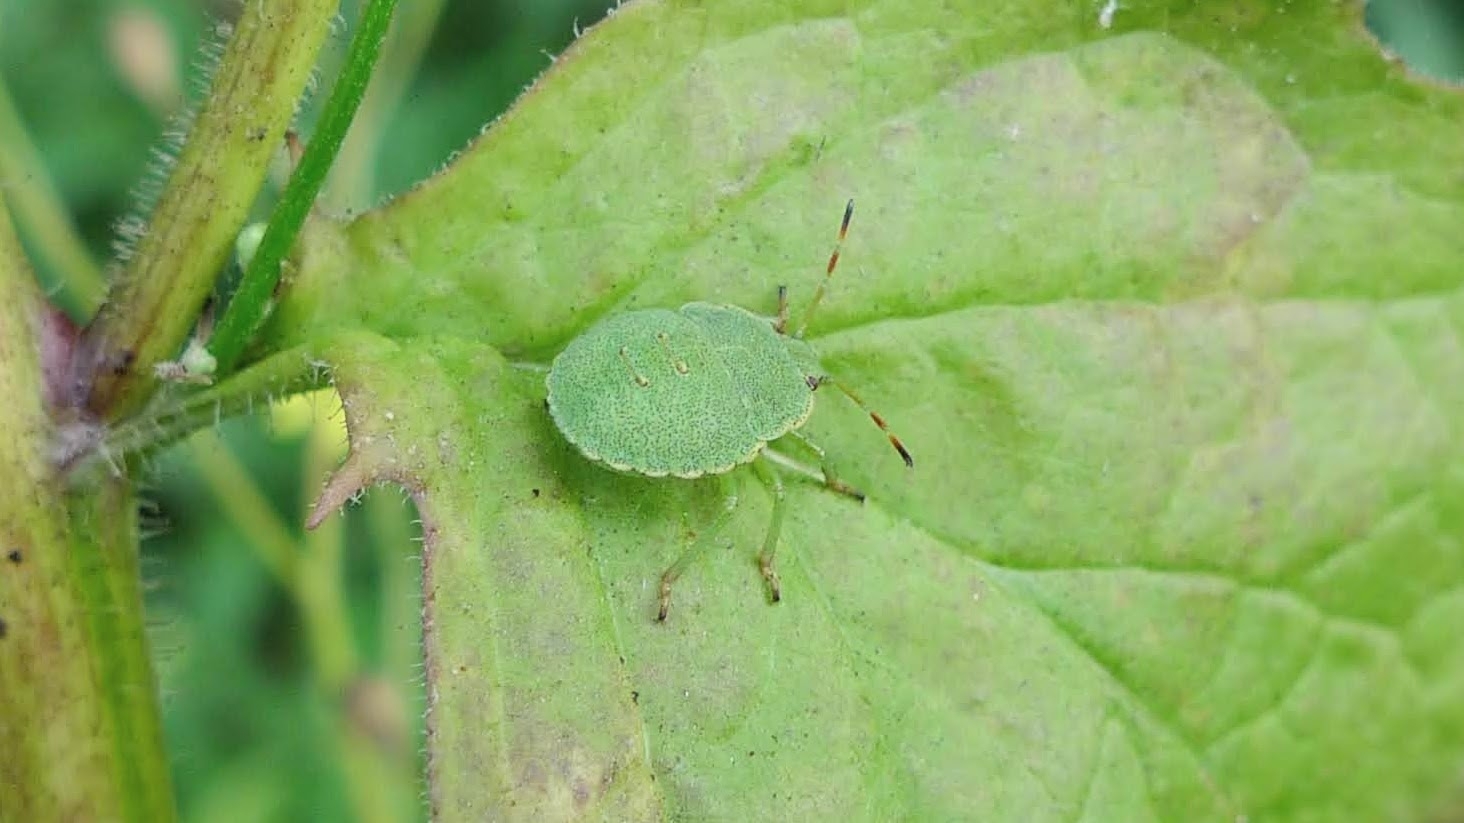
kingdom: Animalia
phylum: Arthropoda
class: Insecta
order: Hemiptera
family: Pentatomidae
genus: Palomena
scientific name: Palomena prasina
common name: Green shieldbug
